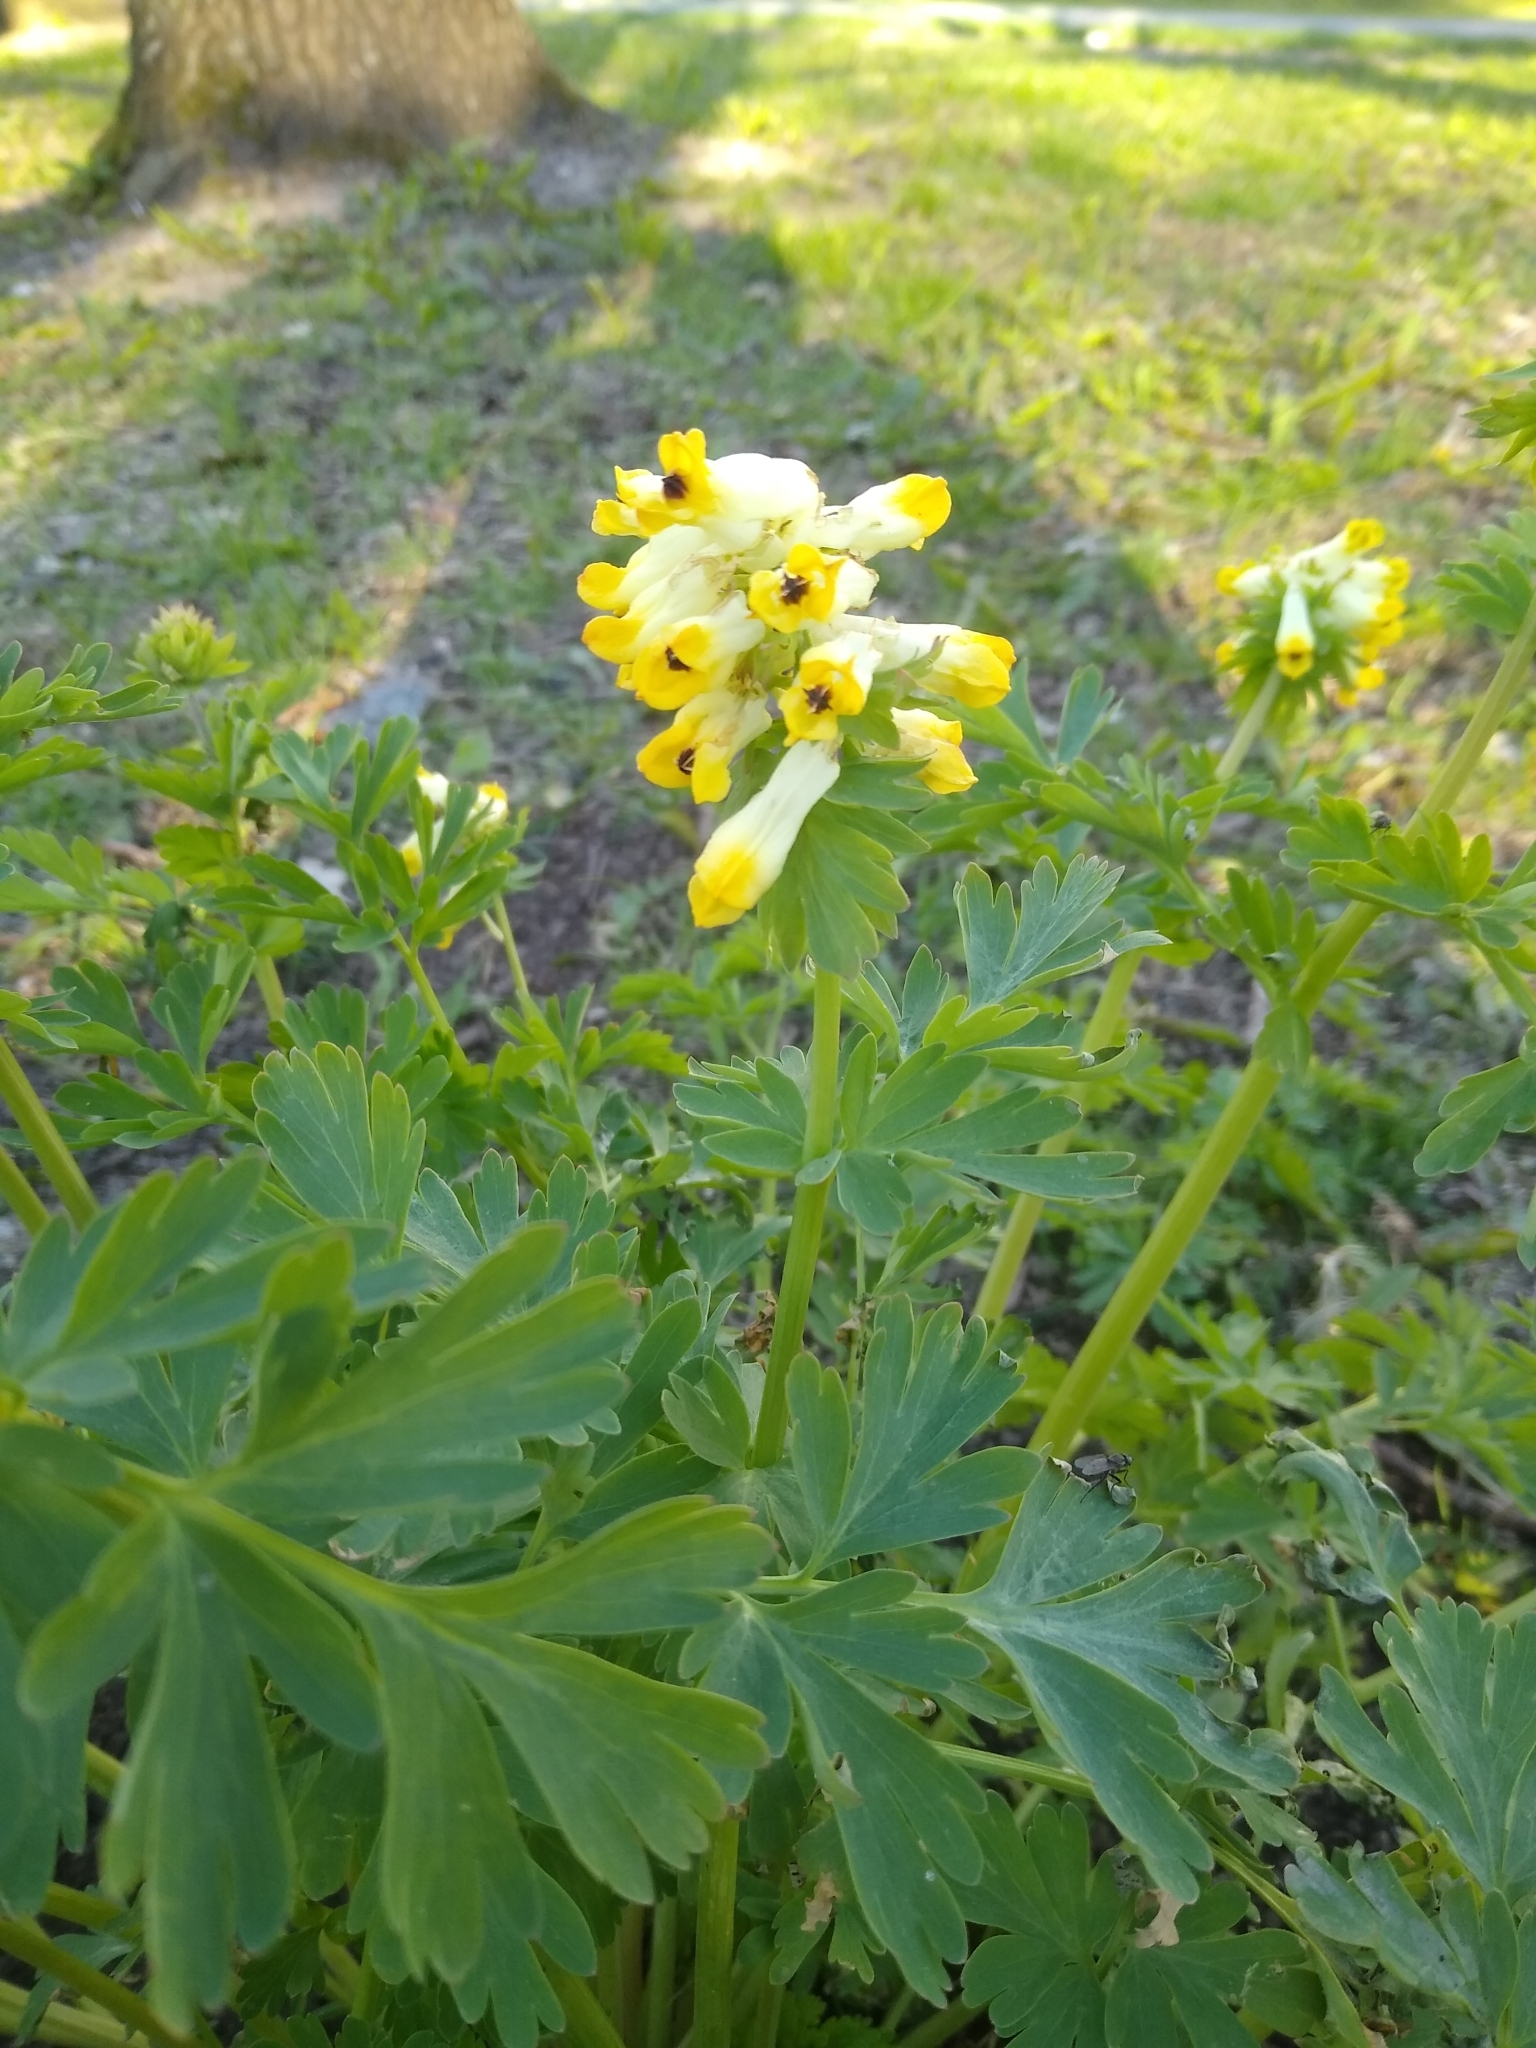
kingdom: Plantae
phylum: Tracheophyta
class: Magnoliopsida
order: Ranunculales
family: Papaveraceae
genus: Corydalis
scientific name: Corydalis nobilis
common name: Siberian corydalis
